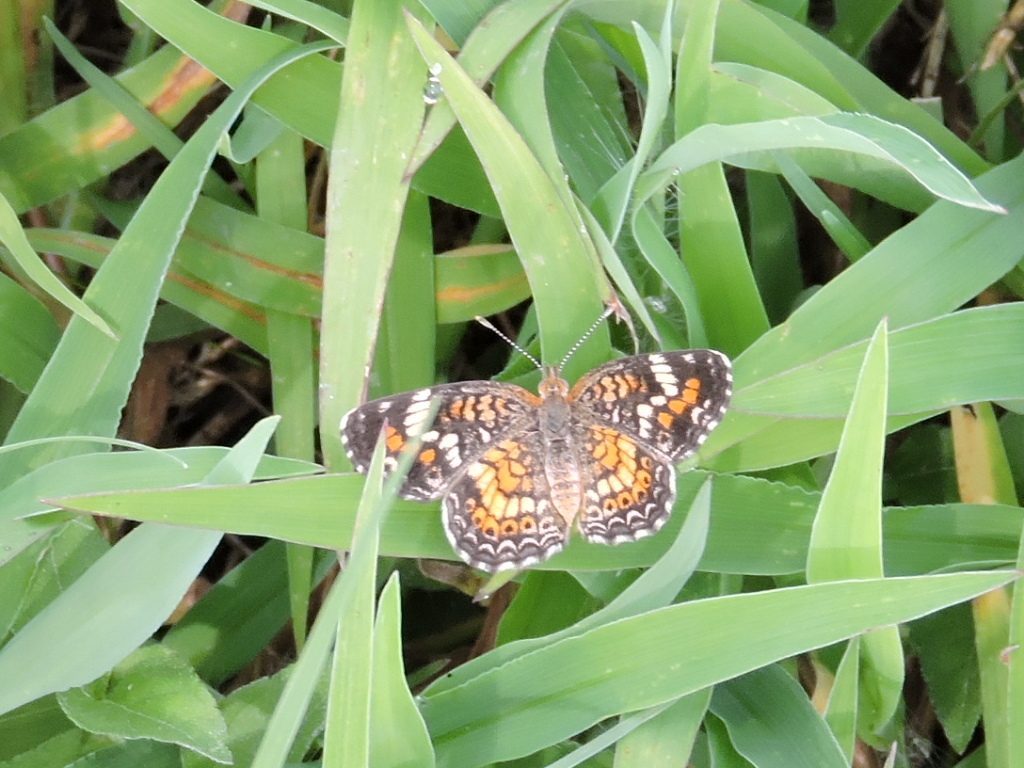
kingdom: Animalia
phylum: Arthropoda
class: Insecta
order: Lepidoptera
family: Nymphalidae
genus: Phyciodes
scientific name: Phyciodes phaon
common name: Phaon crescent
